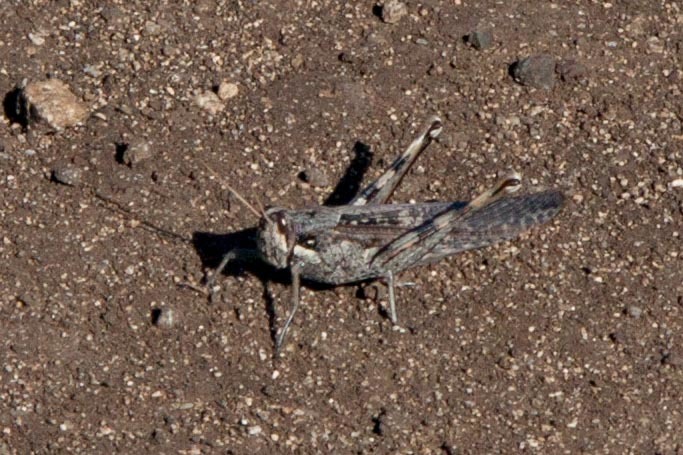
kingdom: Animalia
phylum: Arthropoda
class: Insecta
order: Orthoptera
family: Acrididae
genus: Schistocerca
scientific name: Schistocerca nitens
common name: Vagrant grasshopper
